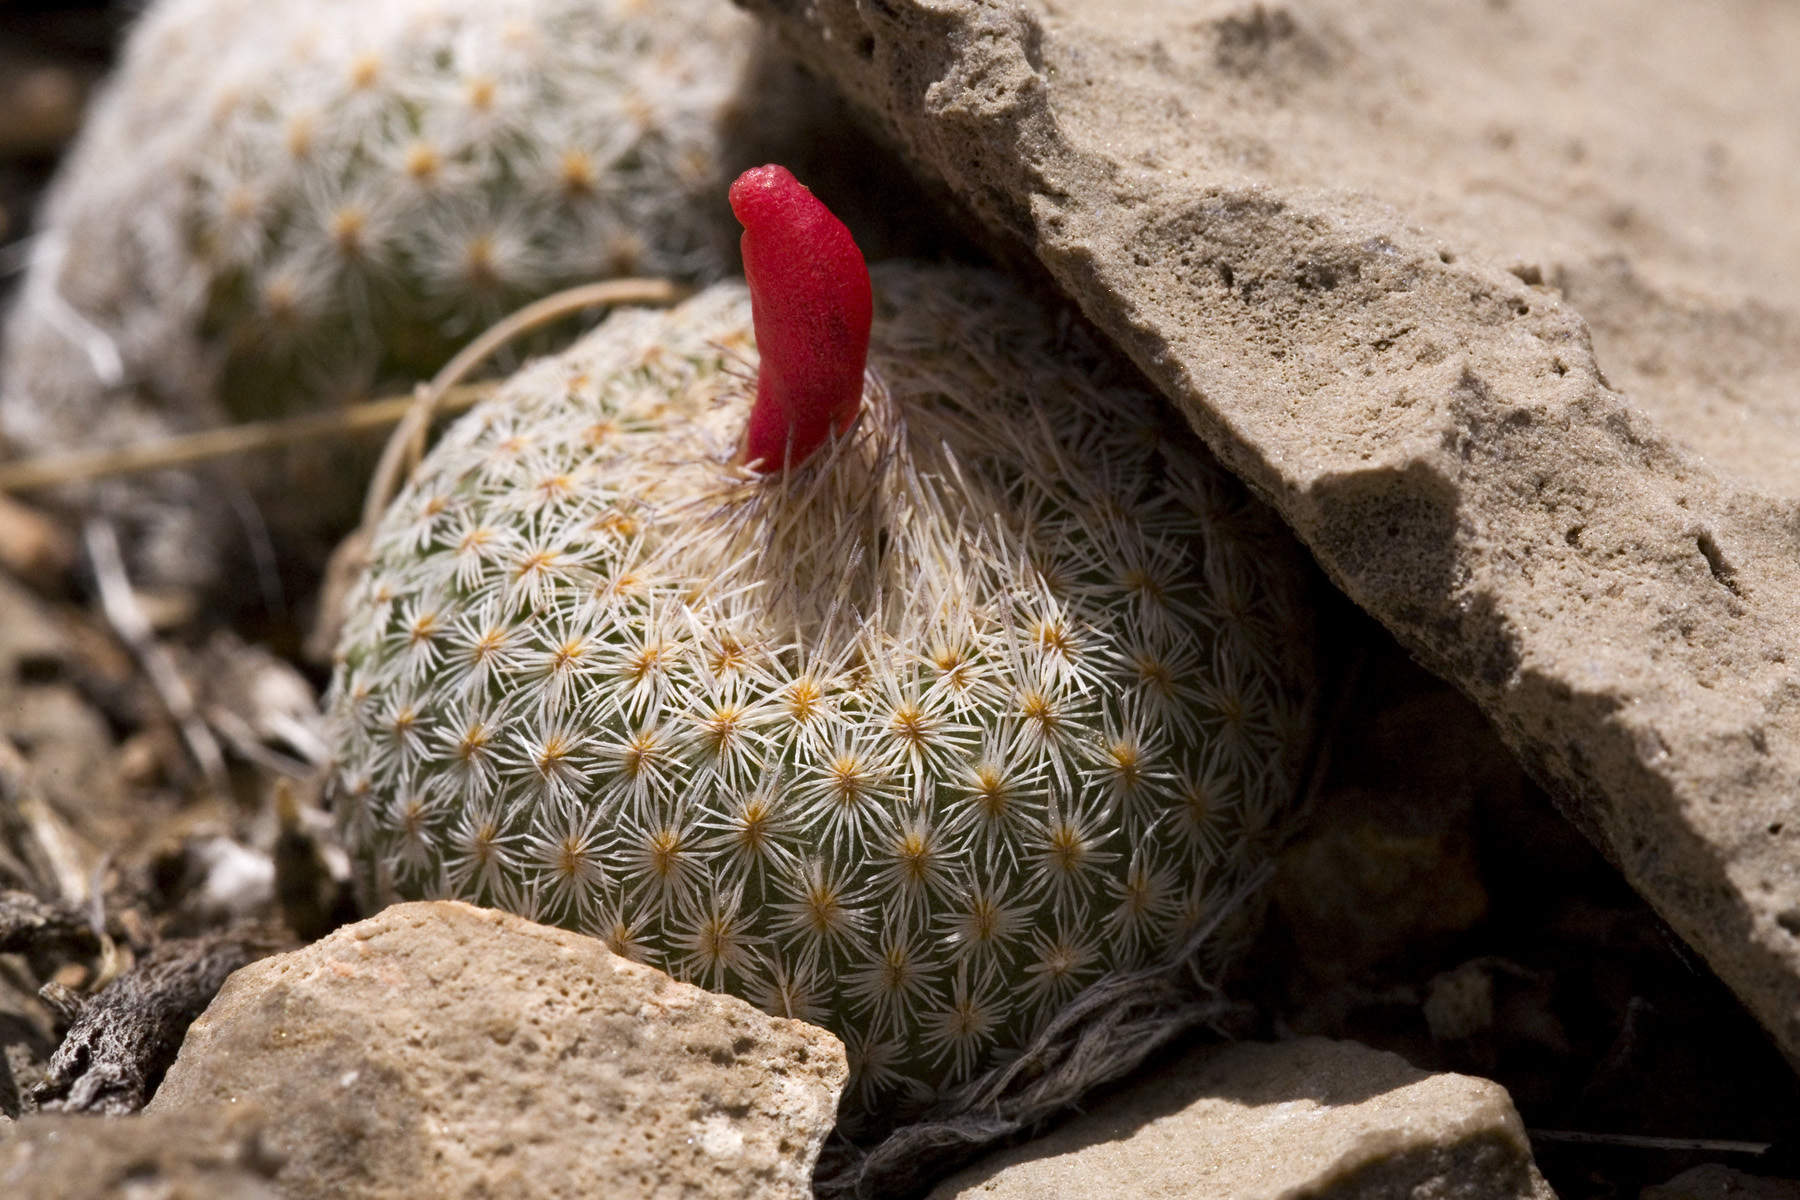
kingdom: Plantae
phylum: Tracheophyta
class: Magnoliopsida
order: Caryophyllales
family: Cactaceae
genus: Epithelantha
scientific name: Epithelantha micromeris
